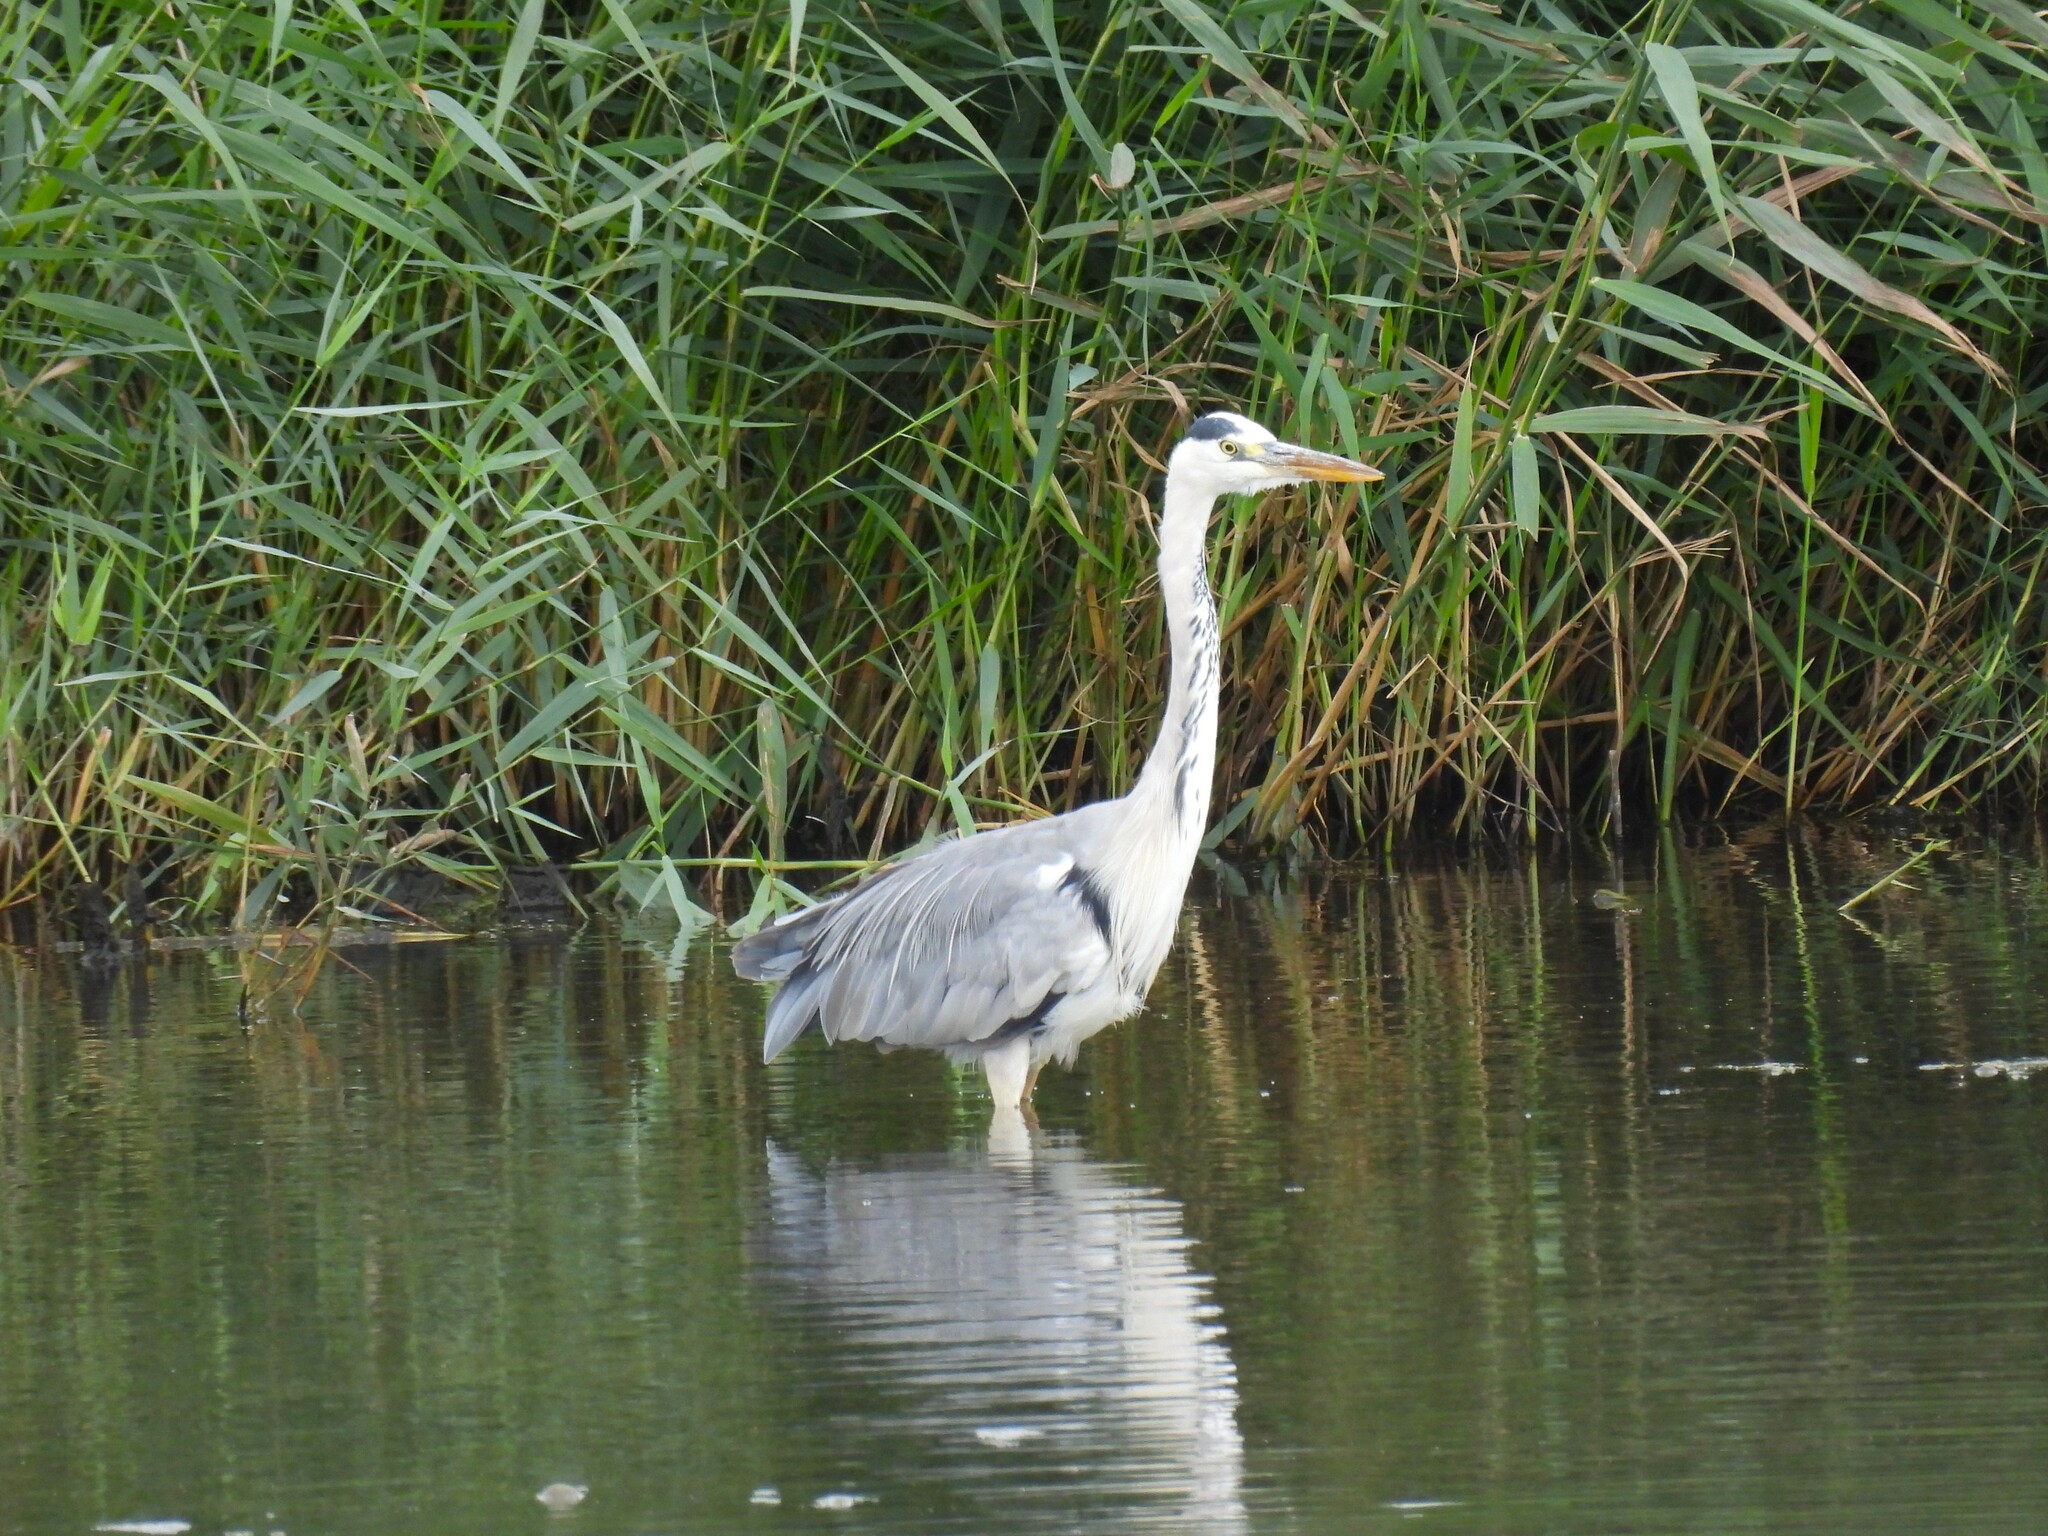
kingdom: Animalia
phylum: Chordata
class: Aves
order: Pelecaniformes
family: Ardeidae
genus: Ardea
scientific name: Ardea cinerea
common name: Grey heron
